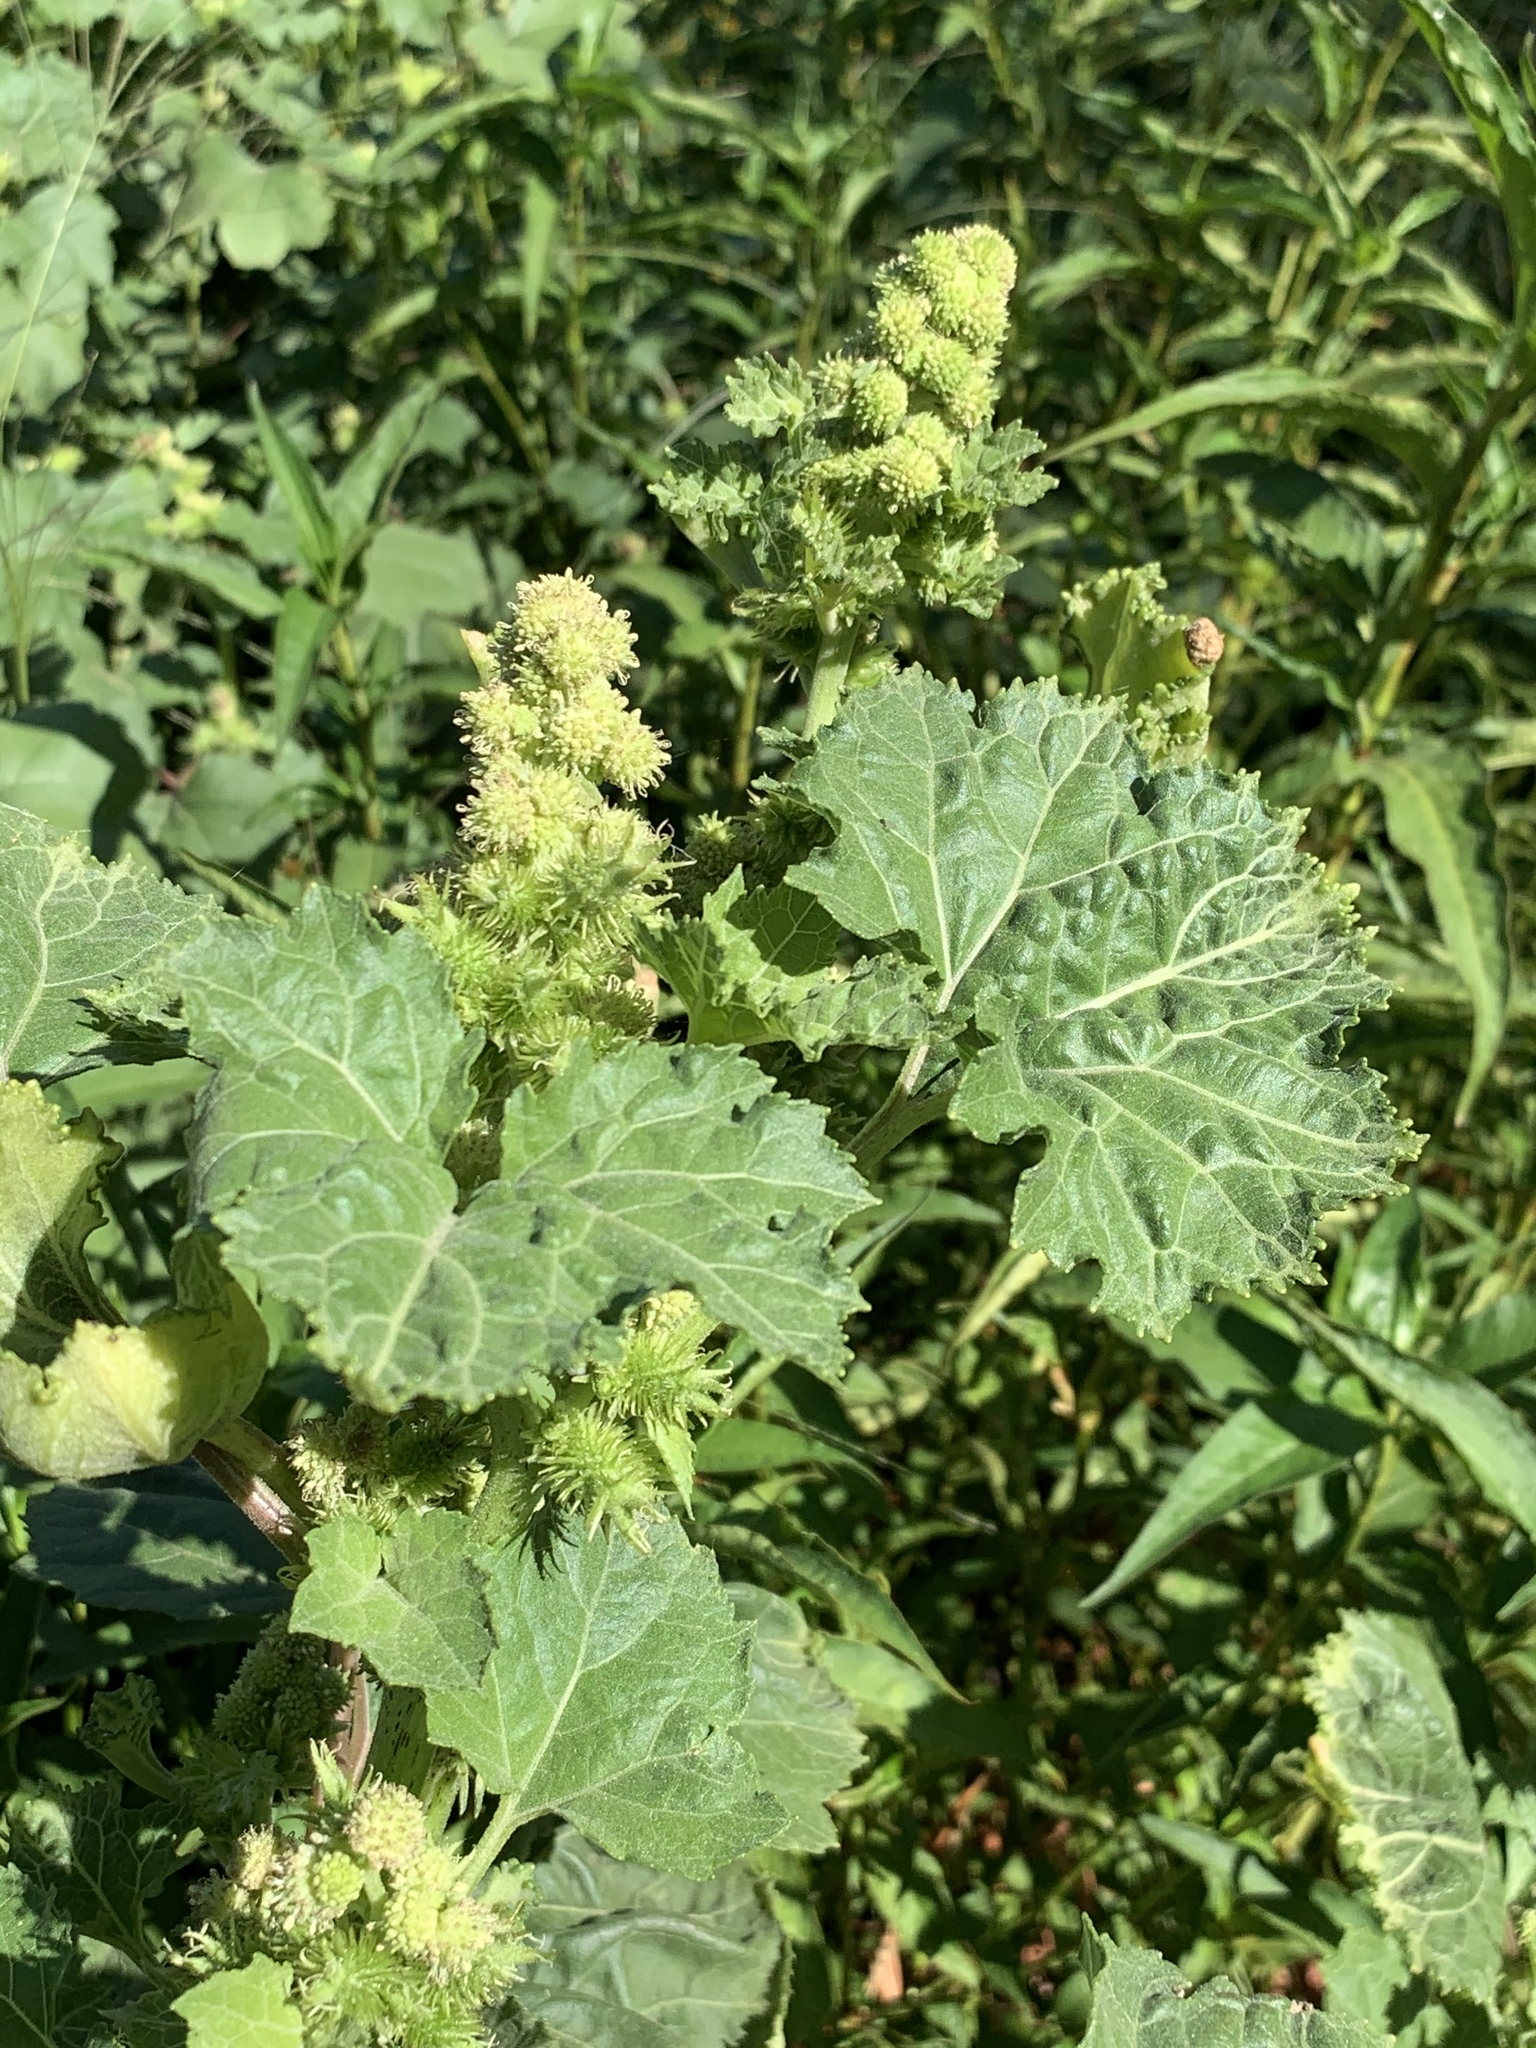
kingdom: Plantae
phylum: Tracheophyta
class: Magnoliopsida
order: Asterales
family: Asteraceae
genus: Xanthium
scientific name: Xanthium strumarium
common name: Rough cocklebur
